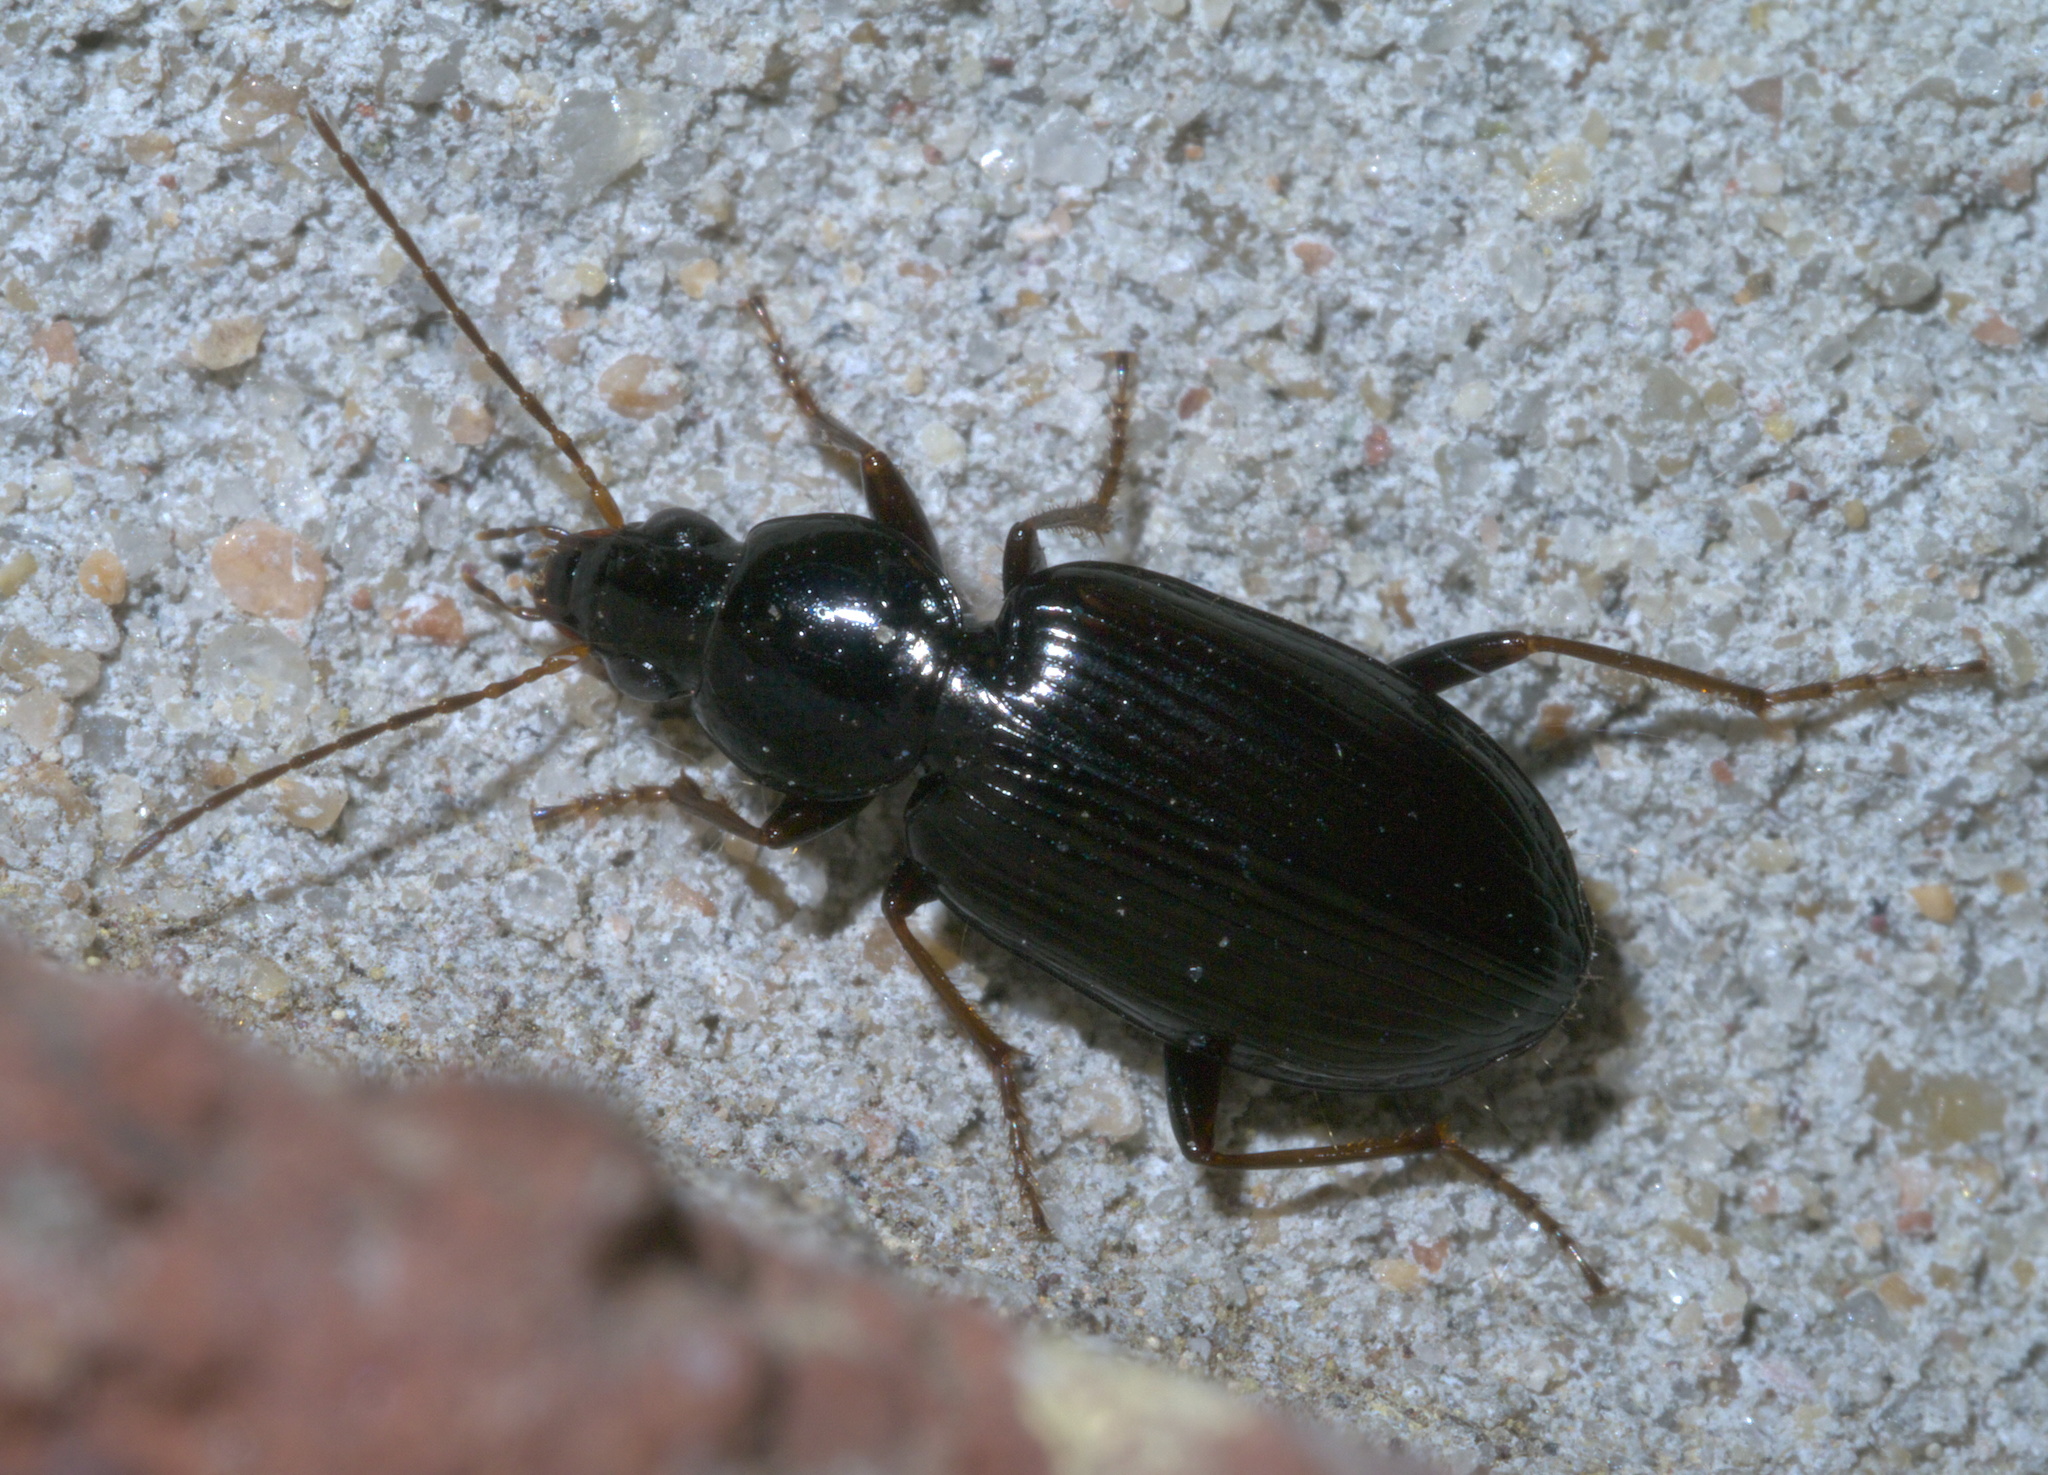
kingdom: Animalia
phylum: Arthropoda
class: Insecta
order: Coleoptera
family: Carabidae
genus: Agonum
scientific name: Agonum punctiforme
